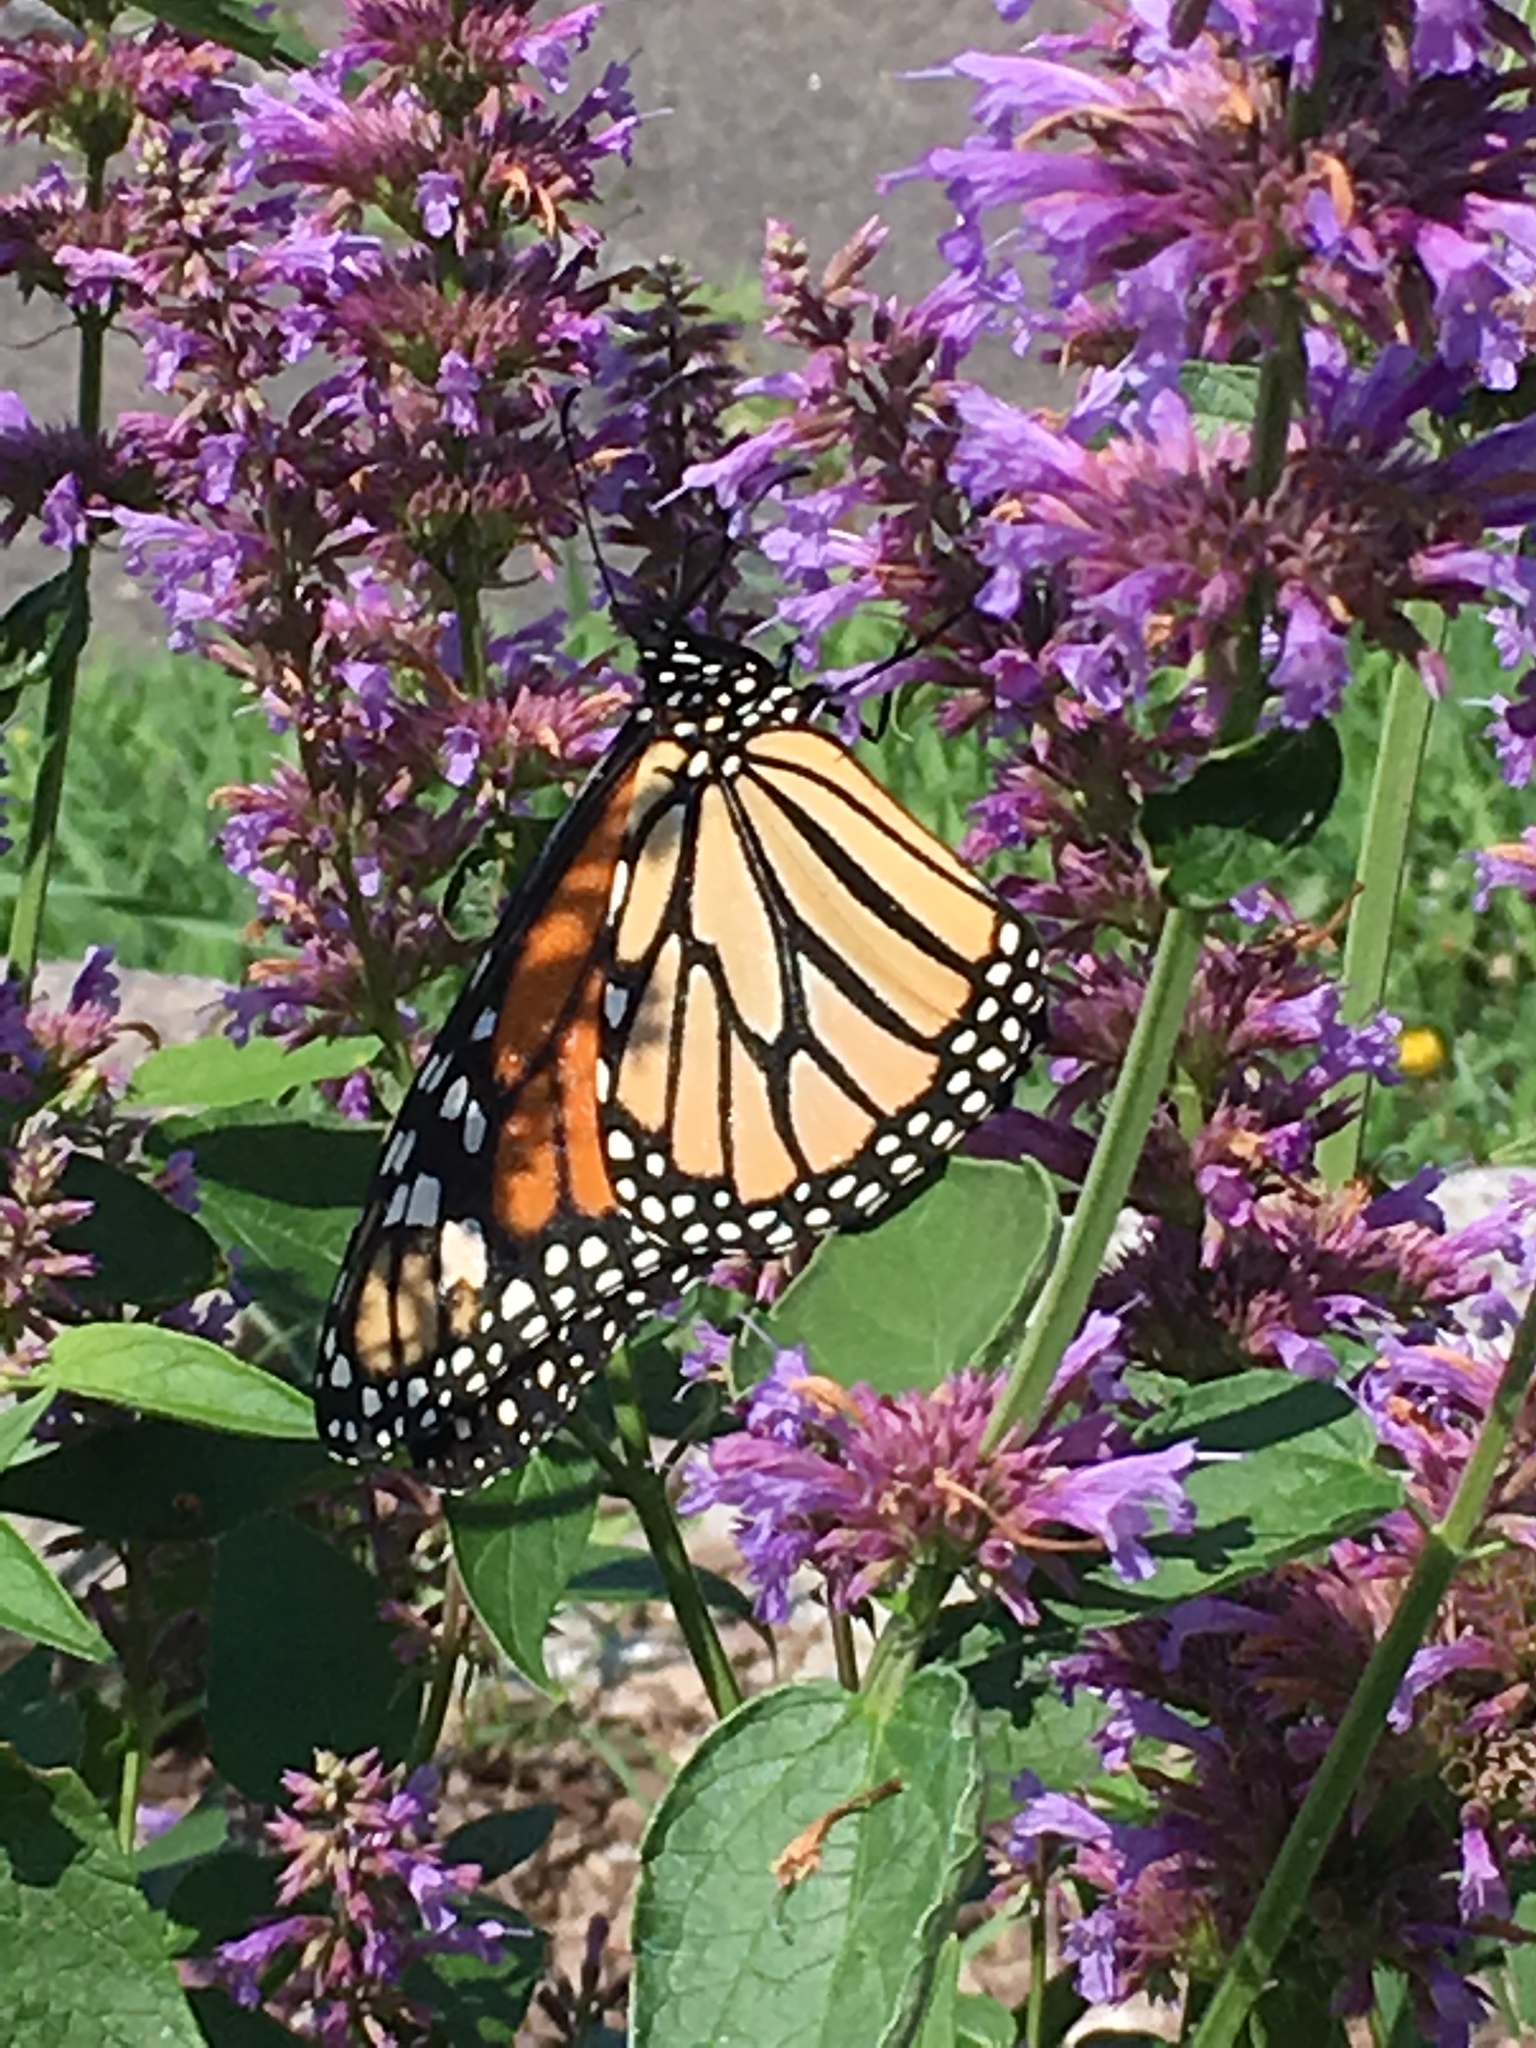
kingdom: Animalia
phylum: Arthropoda
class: Insecta
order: Lepidoptera
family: Nymphalidae
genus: Danaus
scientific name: Danaus plexippus
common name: Monarch
